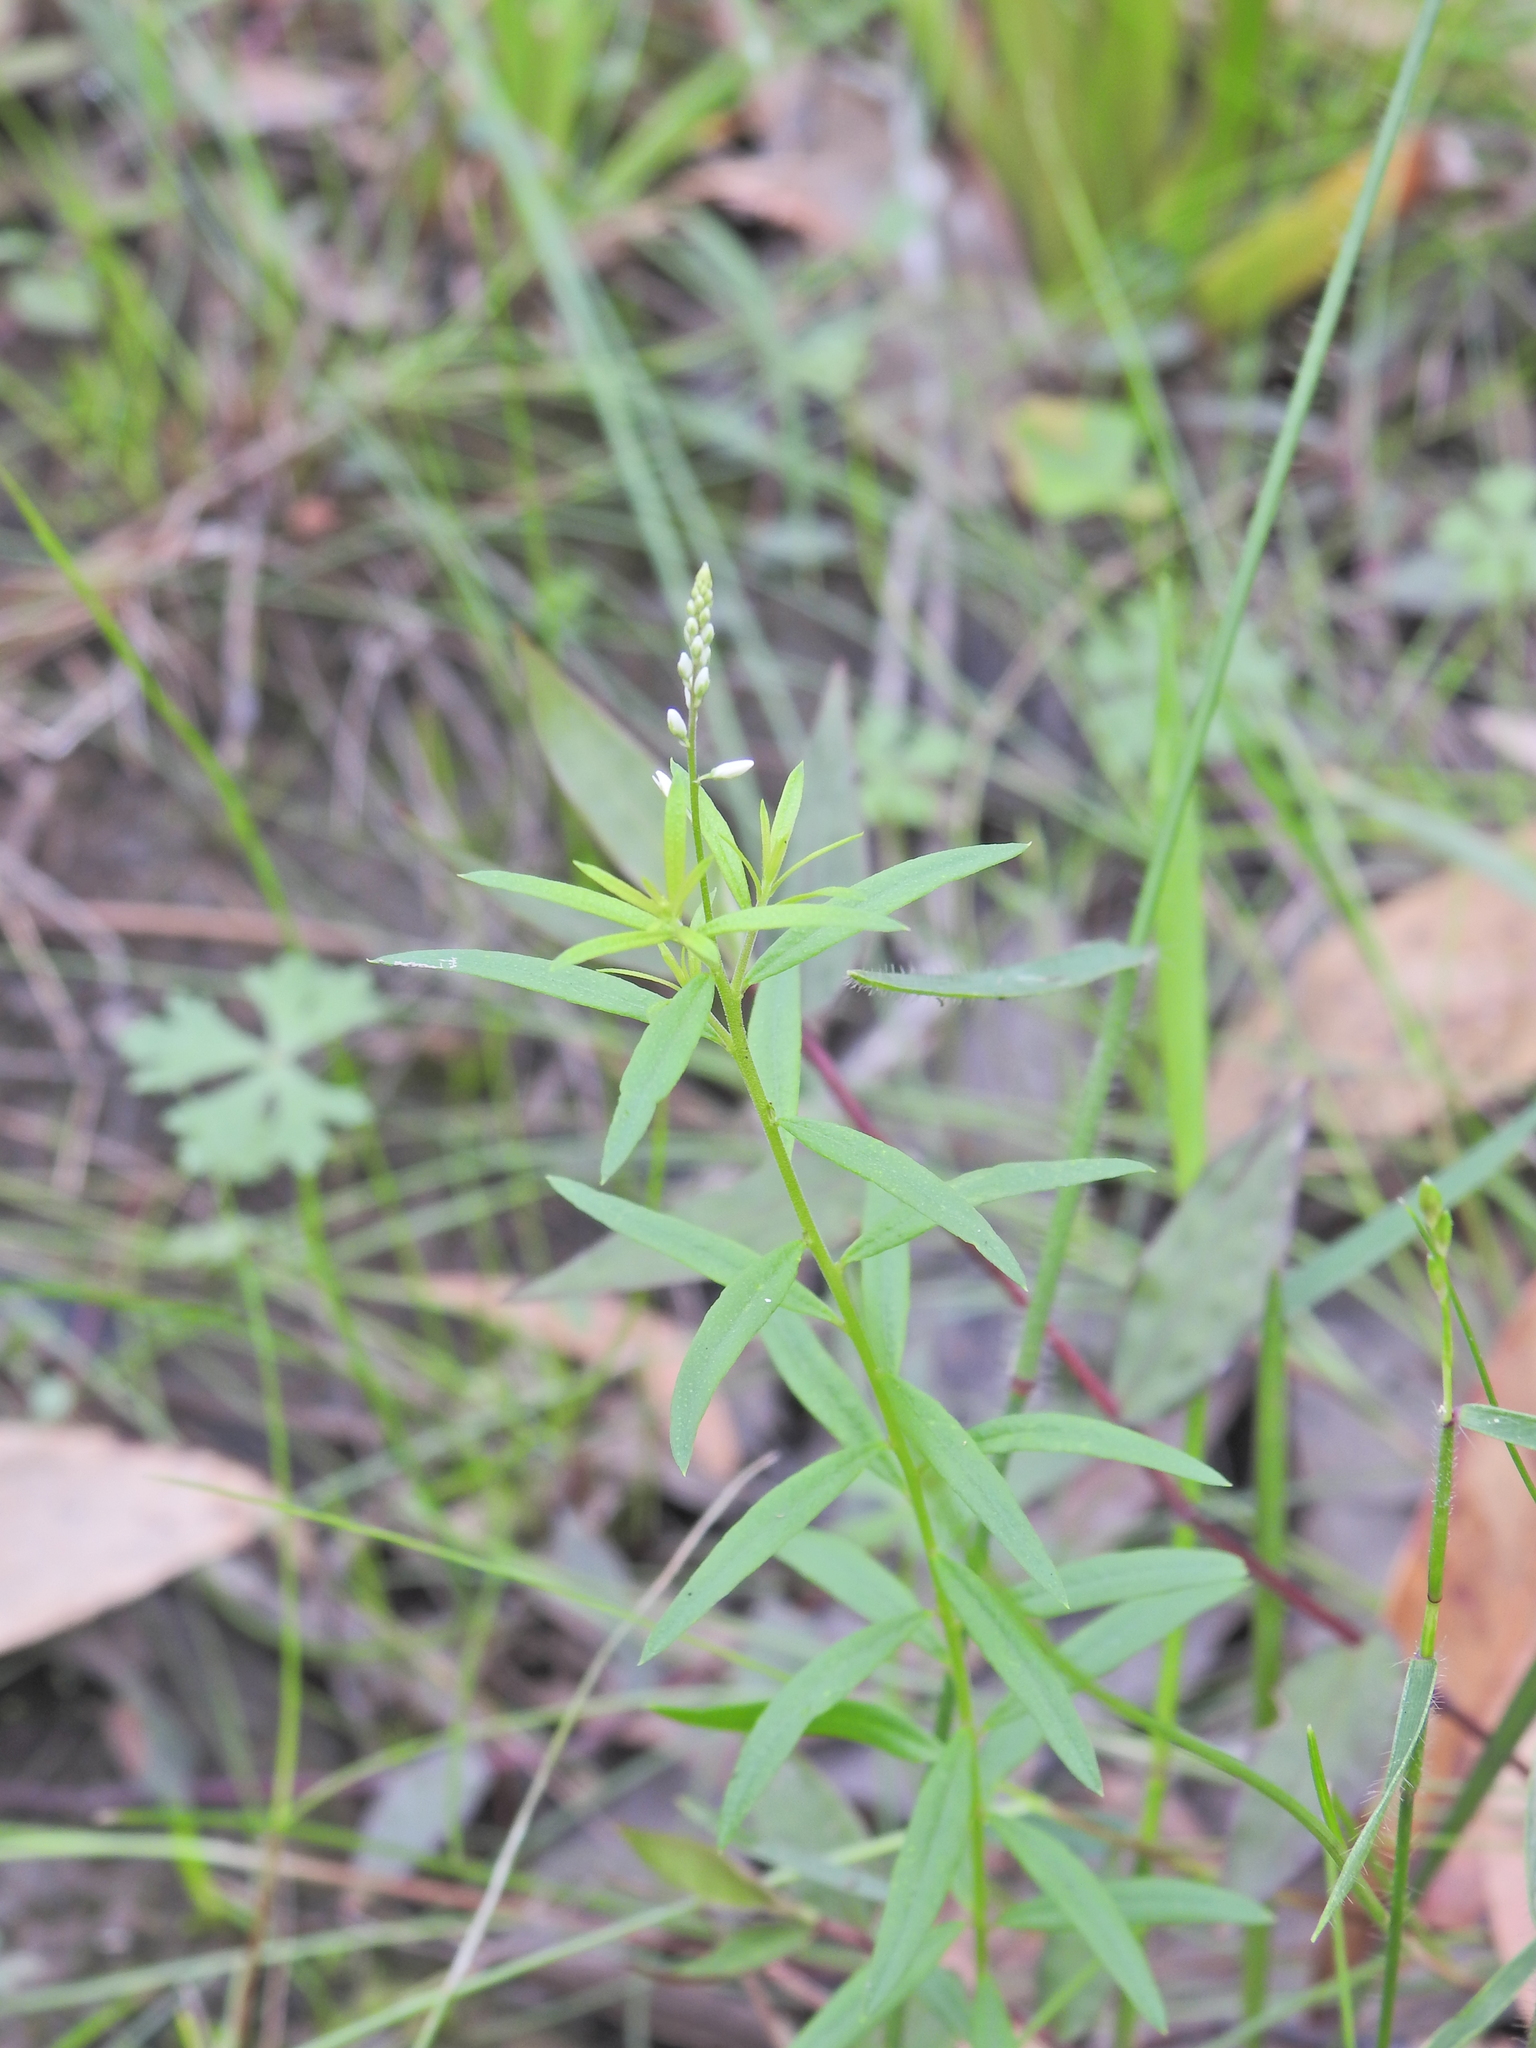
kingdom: Plantae
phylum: Tracheophyta
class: Magnoliopsida
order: Fabales
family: Polygalaceae
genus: Polygala
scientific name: Polygala paniculata
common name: Orosne
